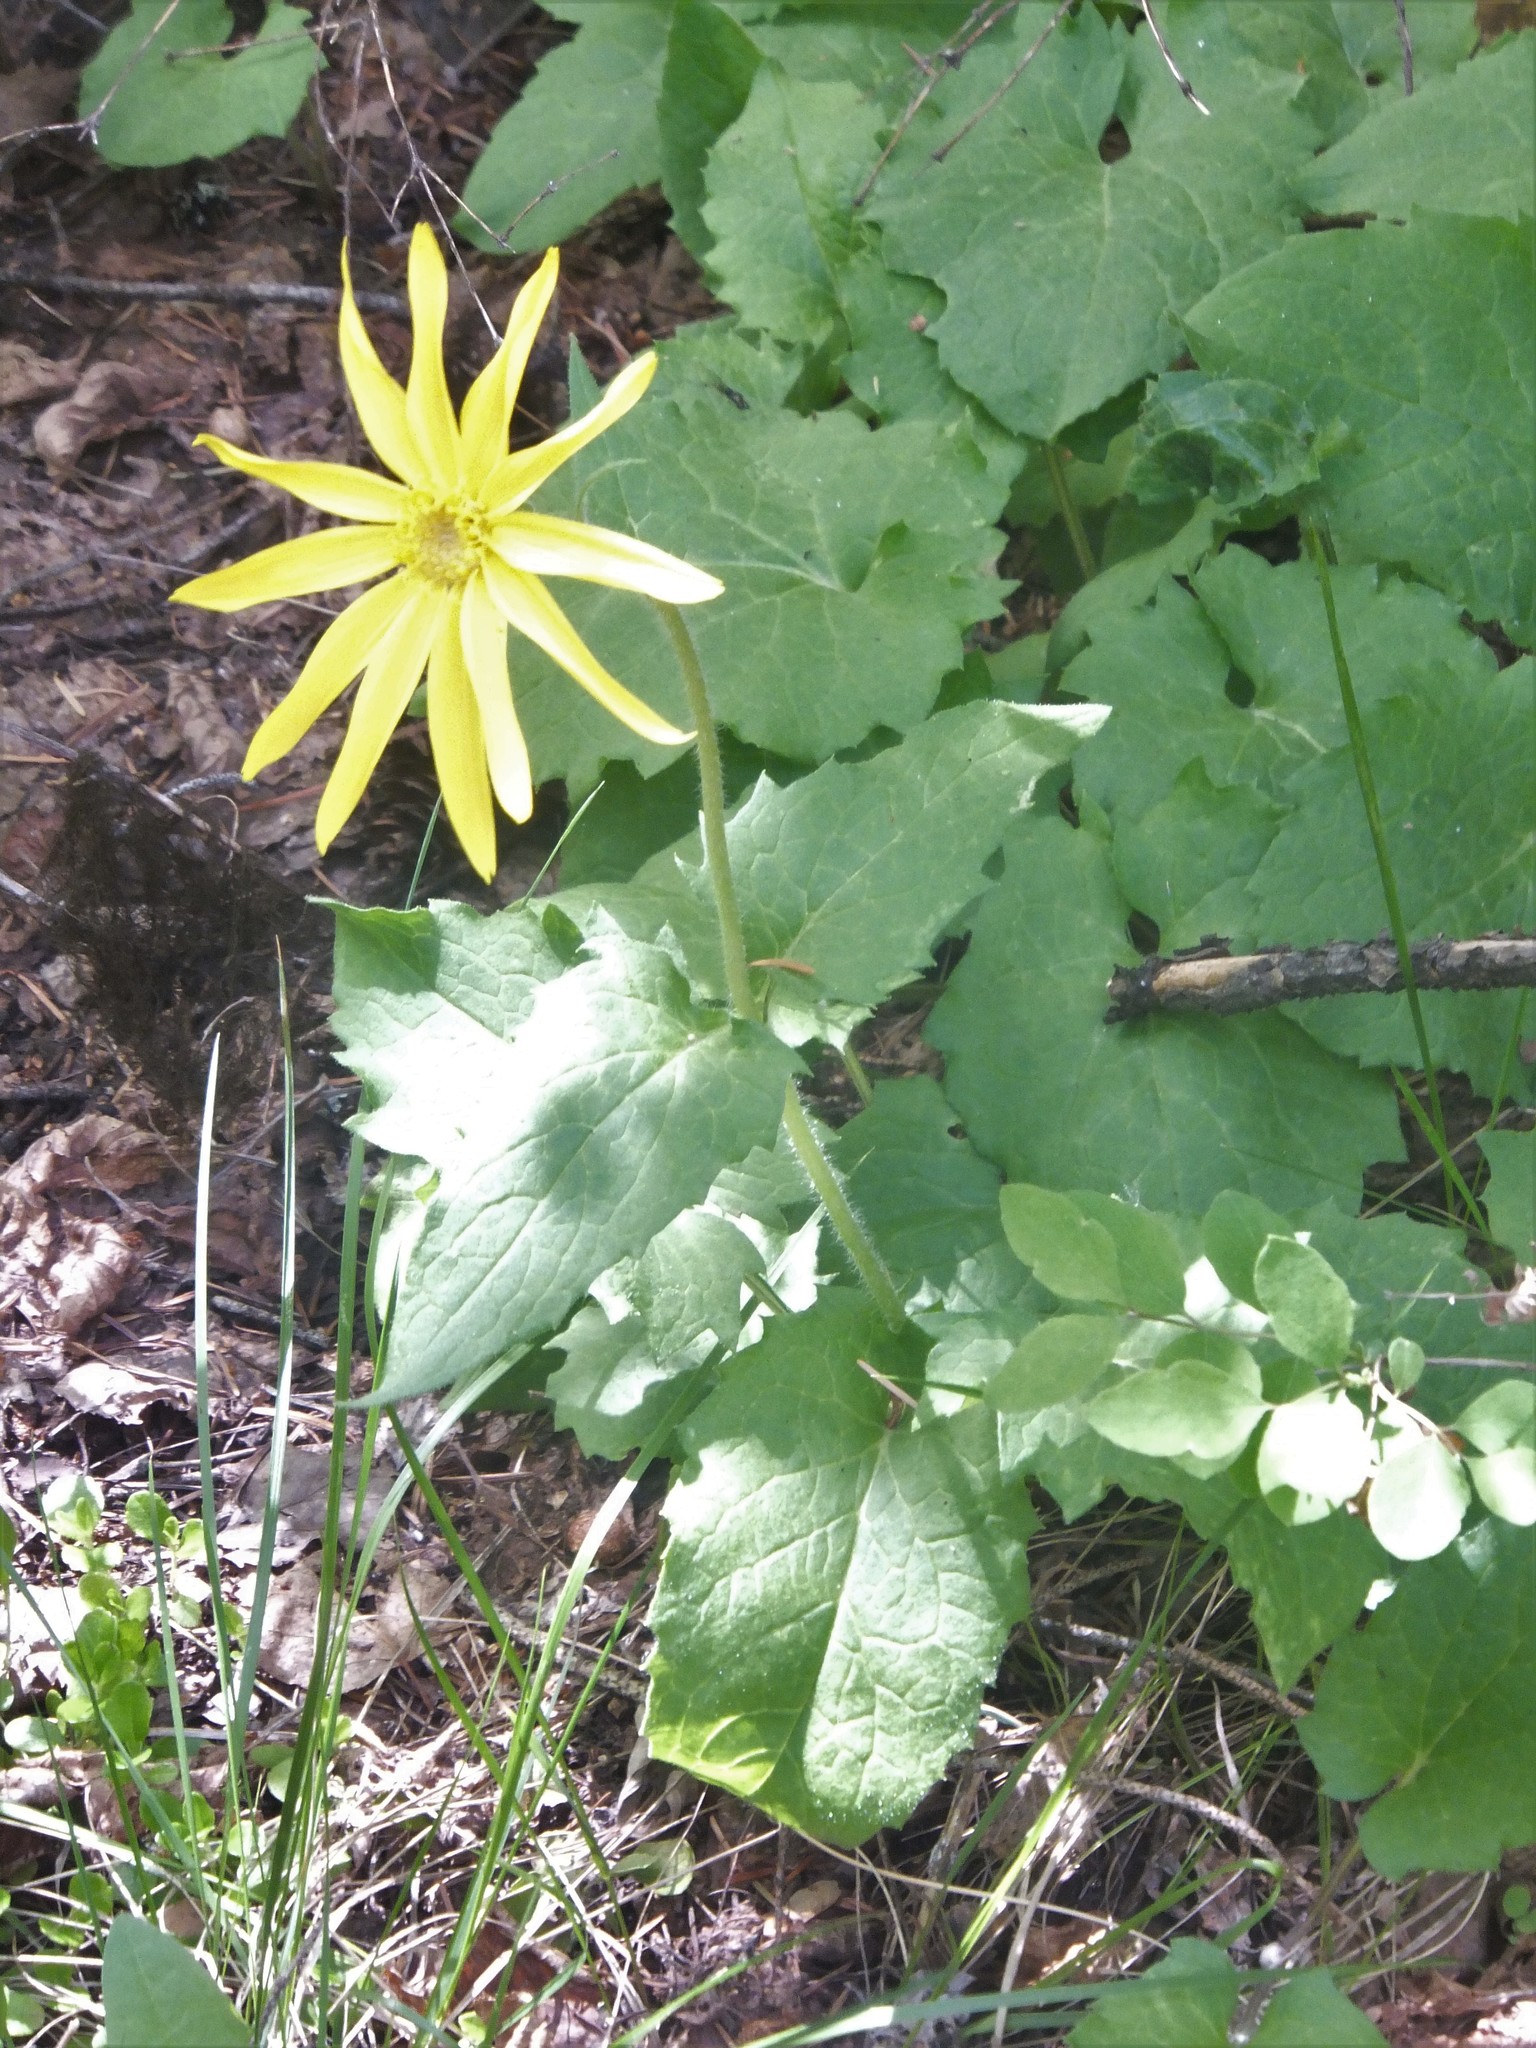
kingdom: Plantae
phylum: Tracheophyta
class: Magnoliopsida
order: Asterales
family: Asteraceae
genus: Arnica
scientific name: Arnica cordifolia
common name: Heart-leaf arnica
